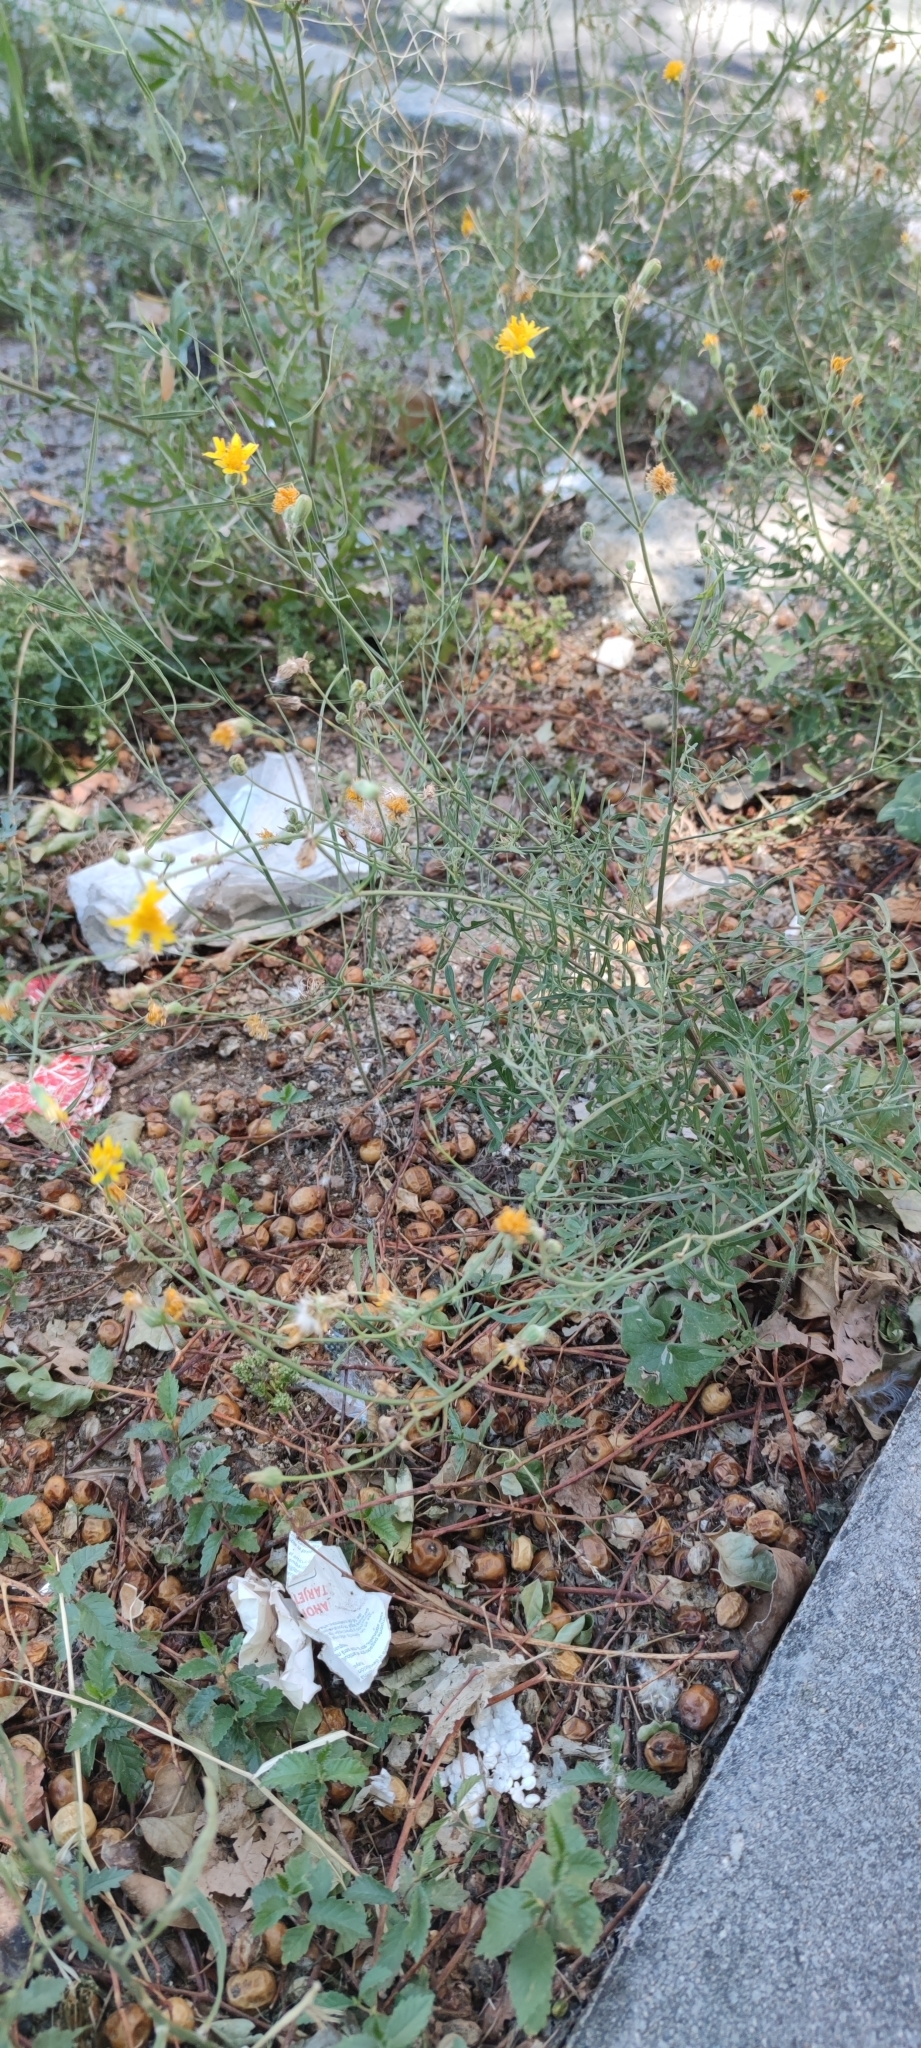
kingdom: Plantae
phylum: Tracheophyta
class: Magnoliopsida
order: Asterales
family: Asteraceae
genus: Sonchus
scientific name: Sonchus tenerrimus
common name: Clammy sowthistle
